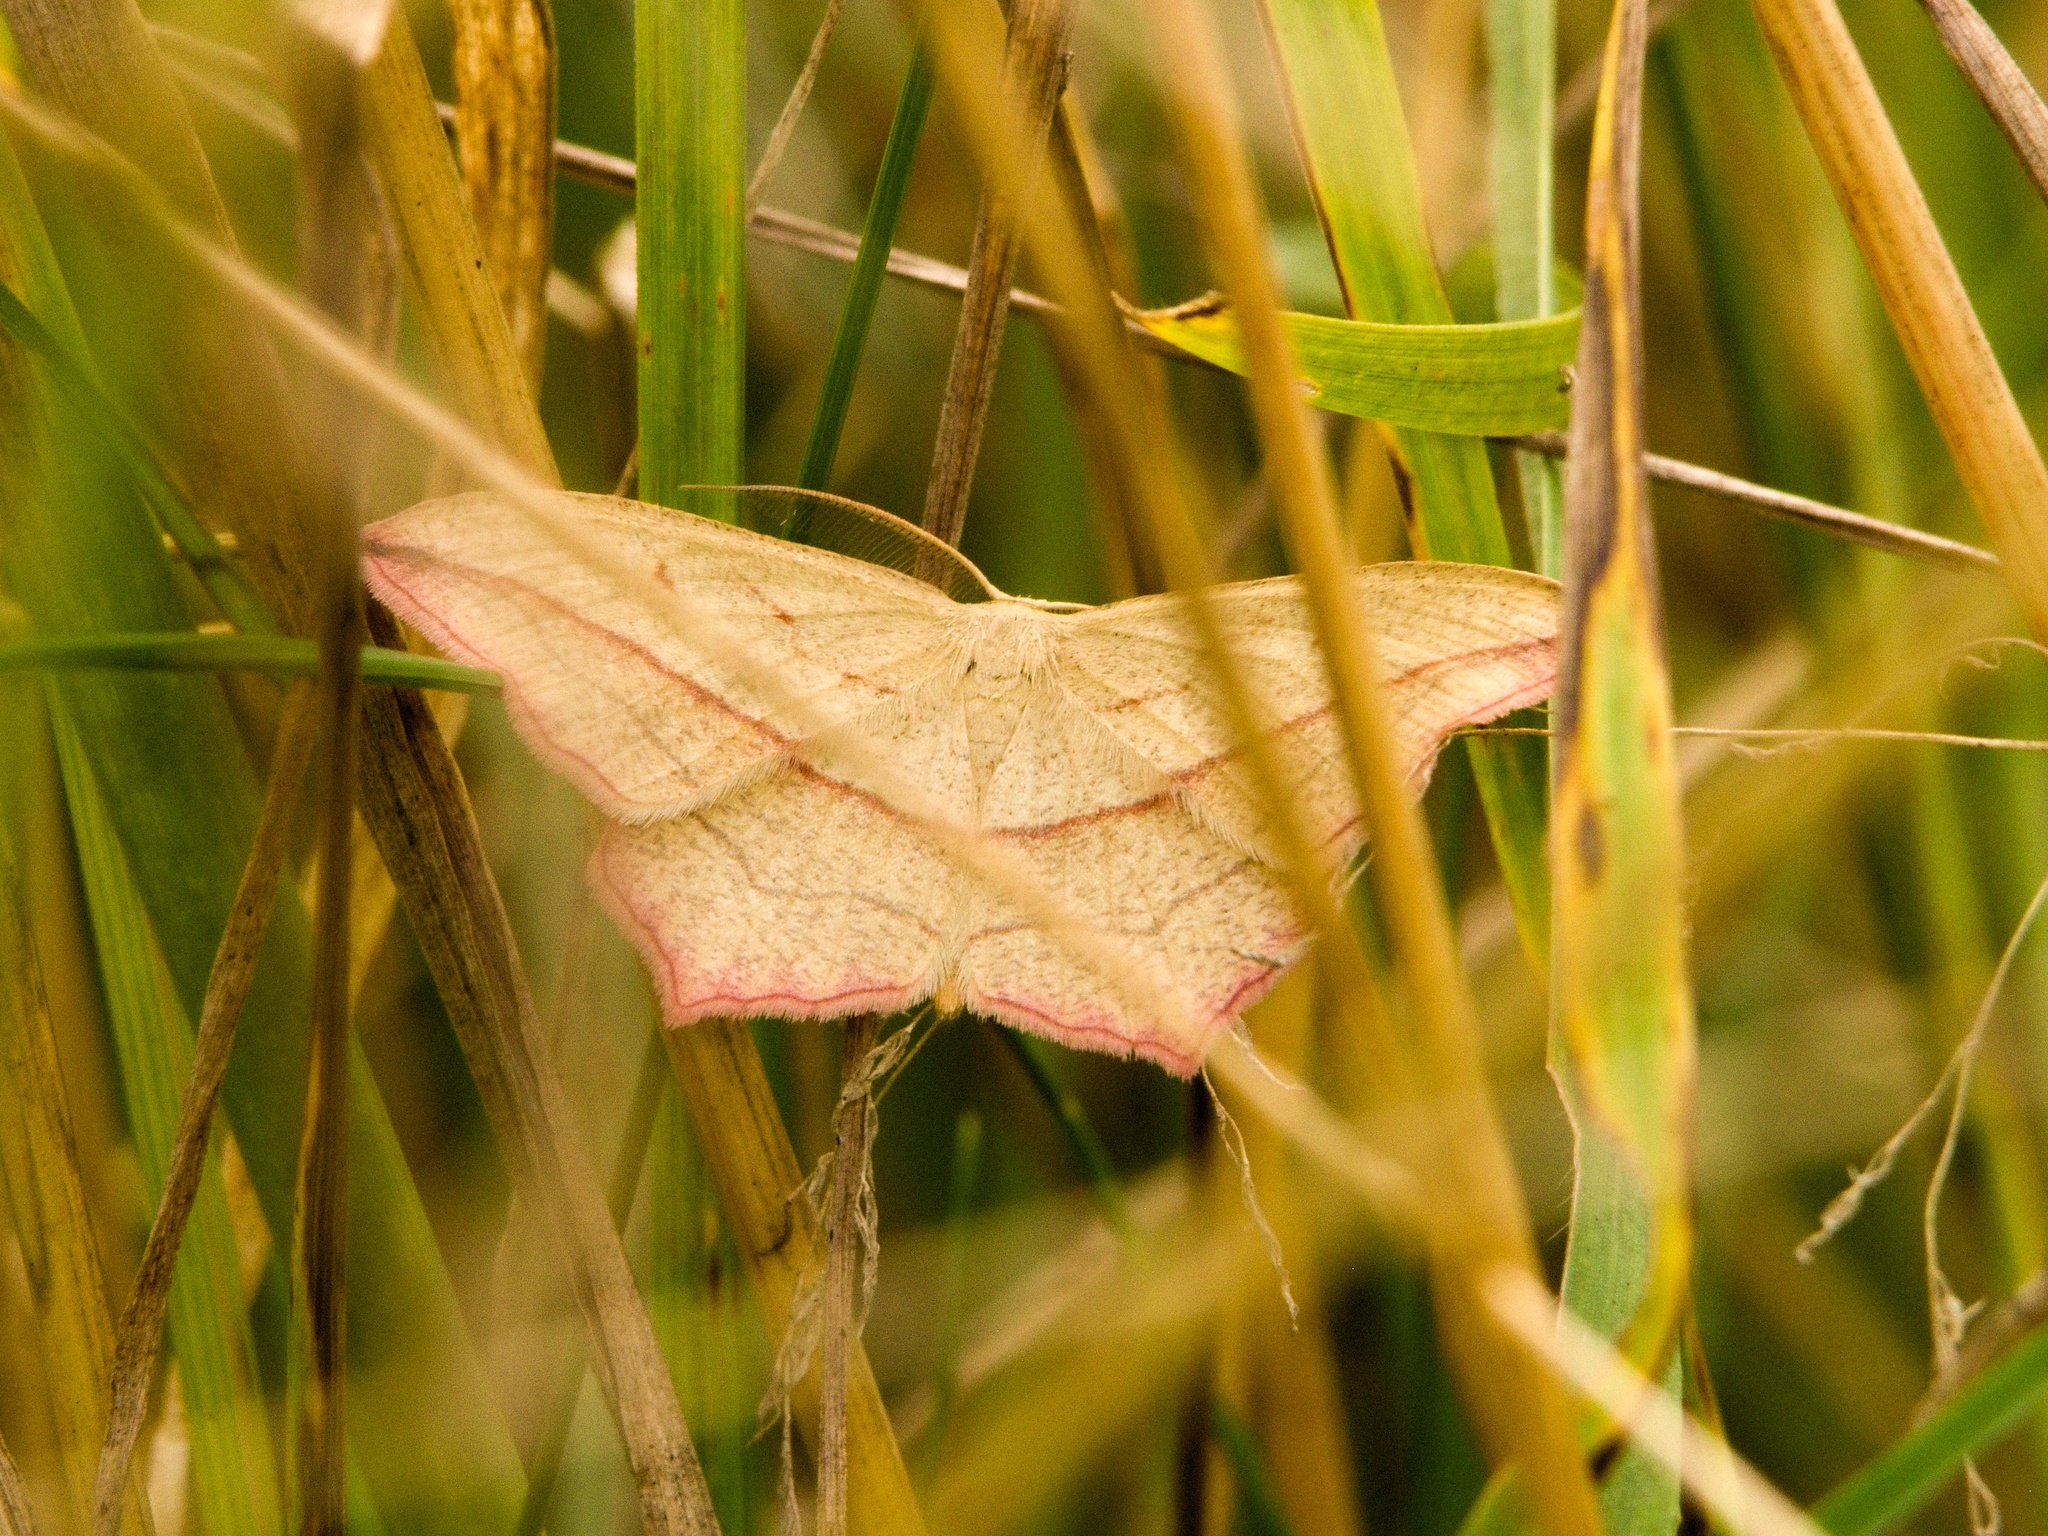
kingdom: Animalia
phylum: Arthropoda
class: Insecta
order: Lepidoptera
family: Geometridae
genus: Timandra
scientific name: Timandra comae
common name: Blood-vein
